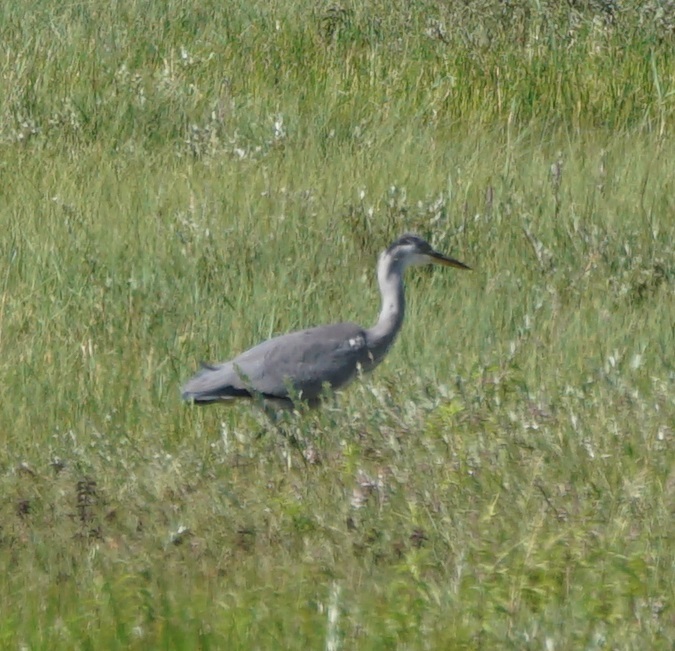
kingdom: Animalia
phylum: Chordata
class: Aves
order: Pelecaniformes
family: Ardeidae
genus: Ardea
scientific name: Ardea cinerea
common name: Grey heron
